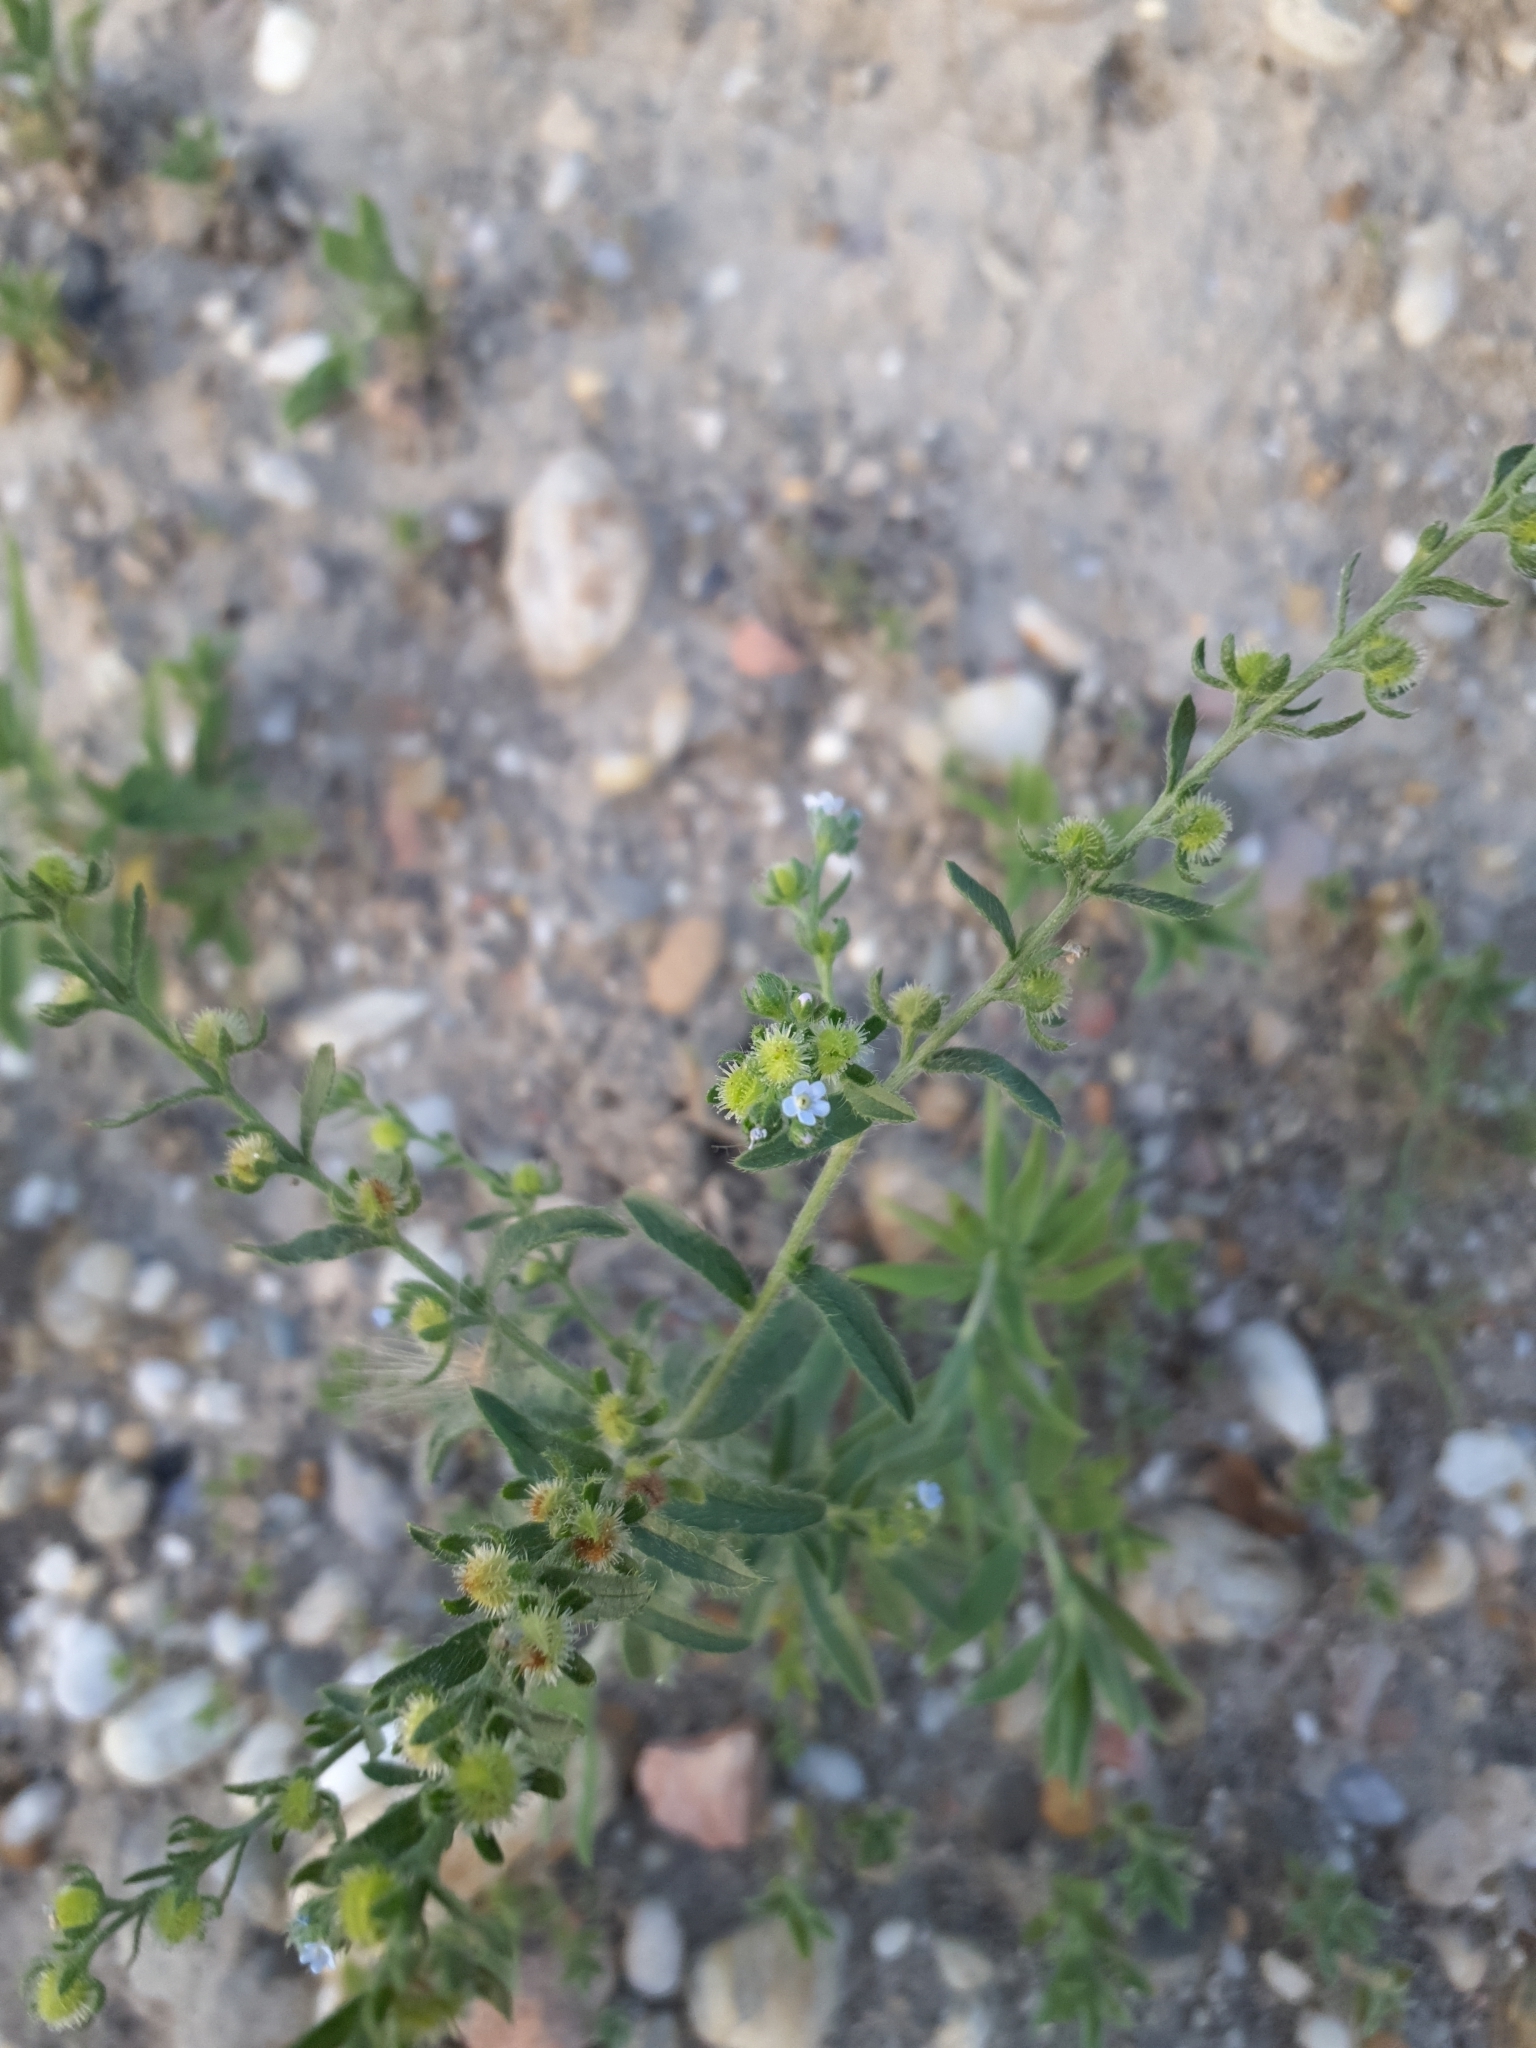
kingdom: Plantae
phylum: Tracheophyta
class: Magnoliopsida
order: Boraginales
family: Boraginaceae
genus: Lappula
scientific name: Lappula squarrosa
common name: European stickseed
